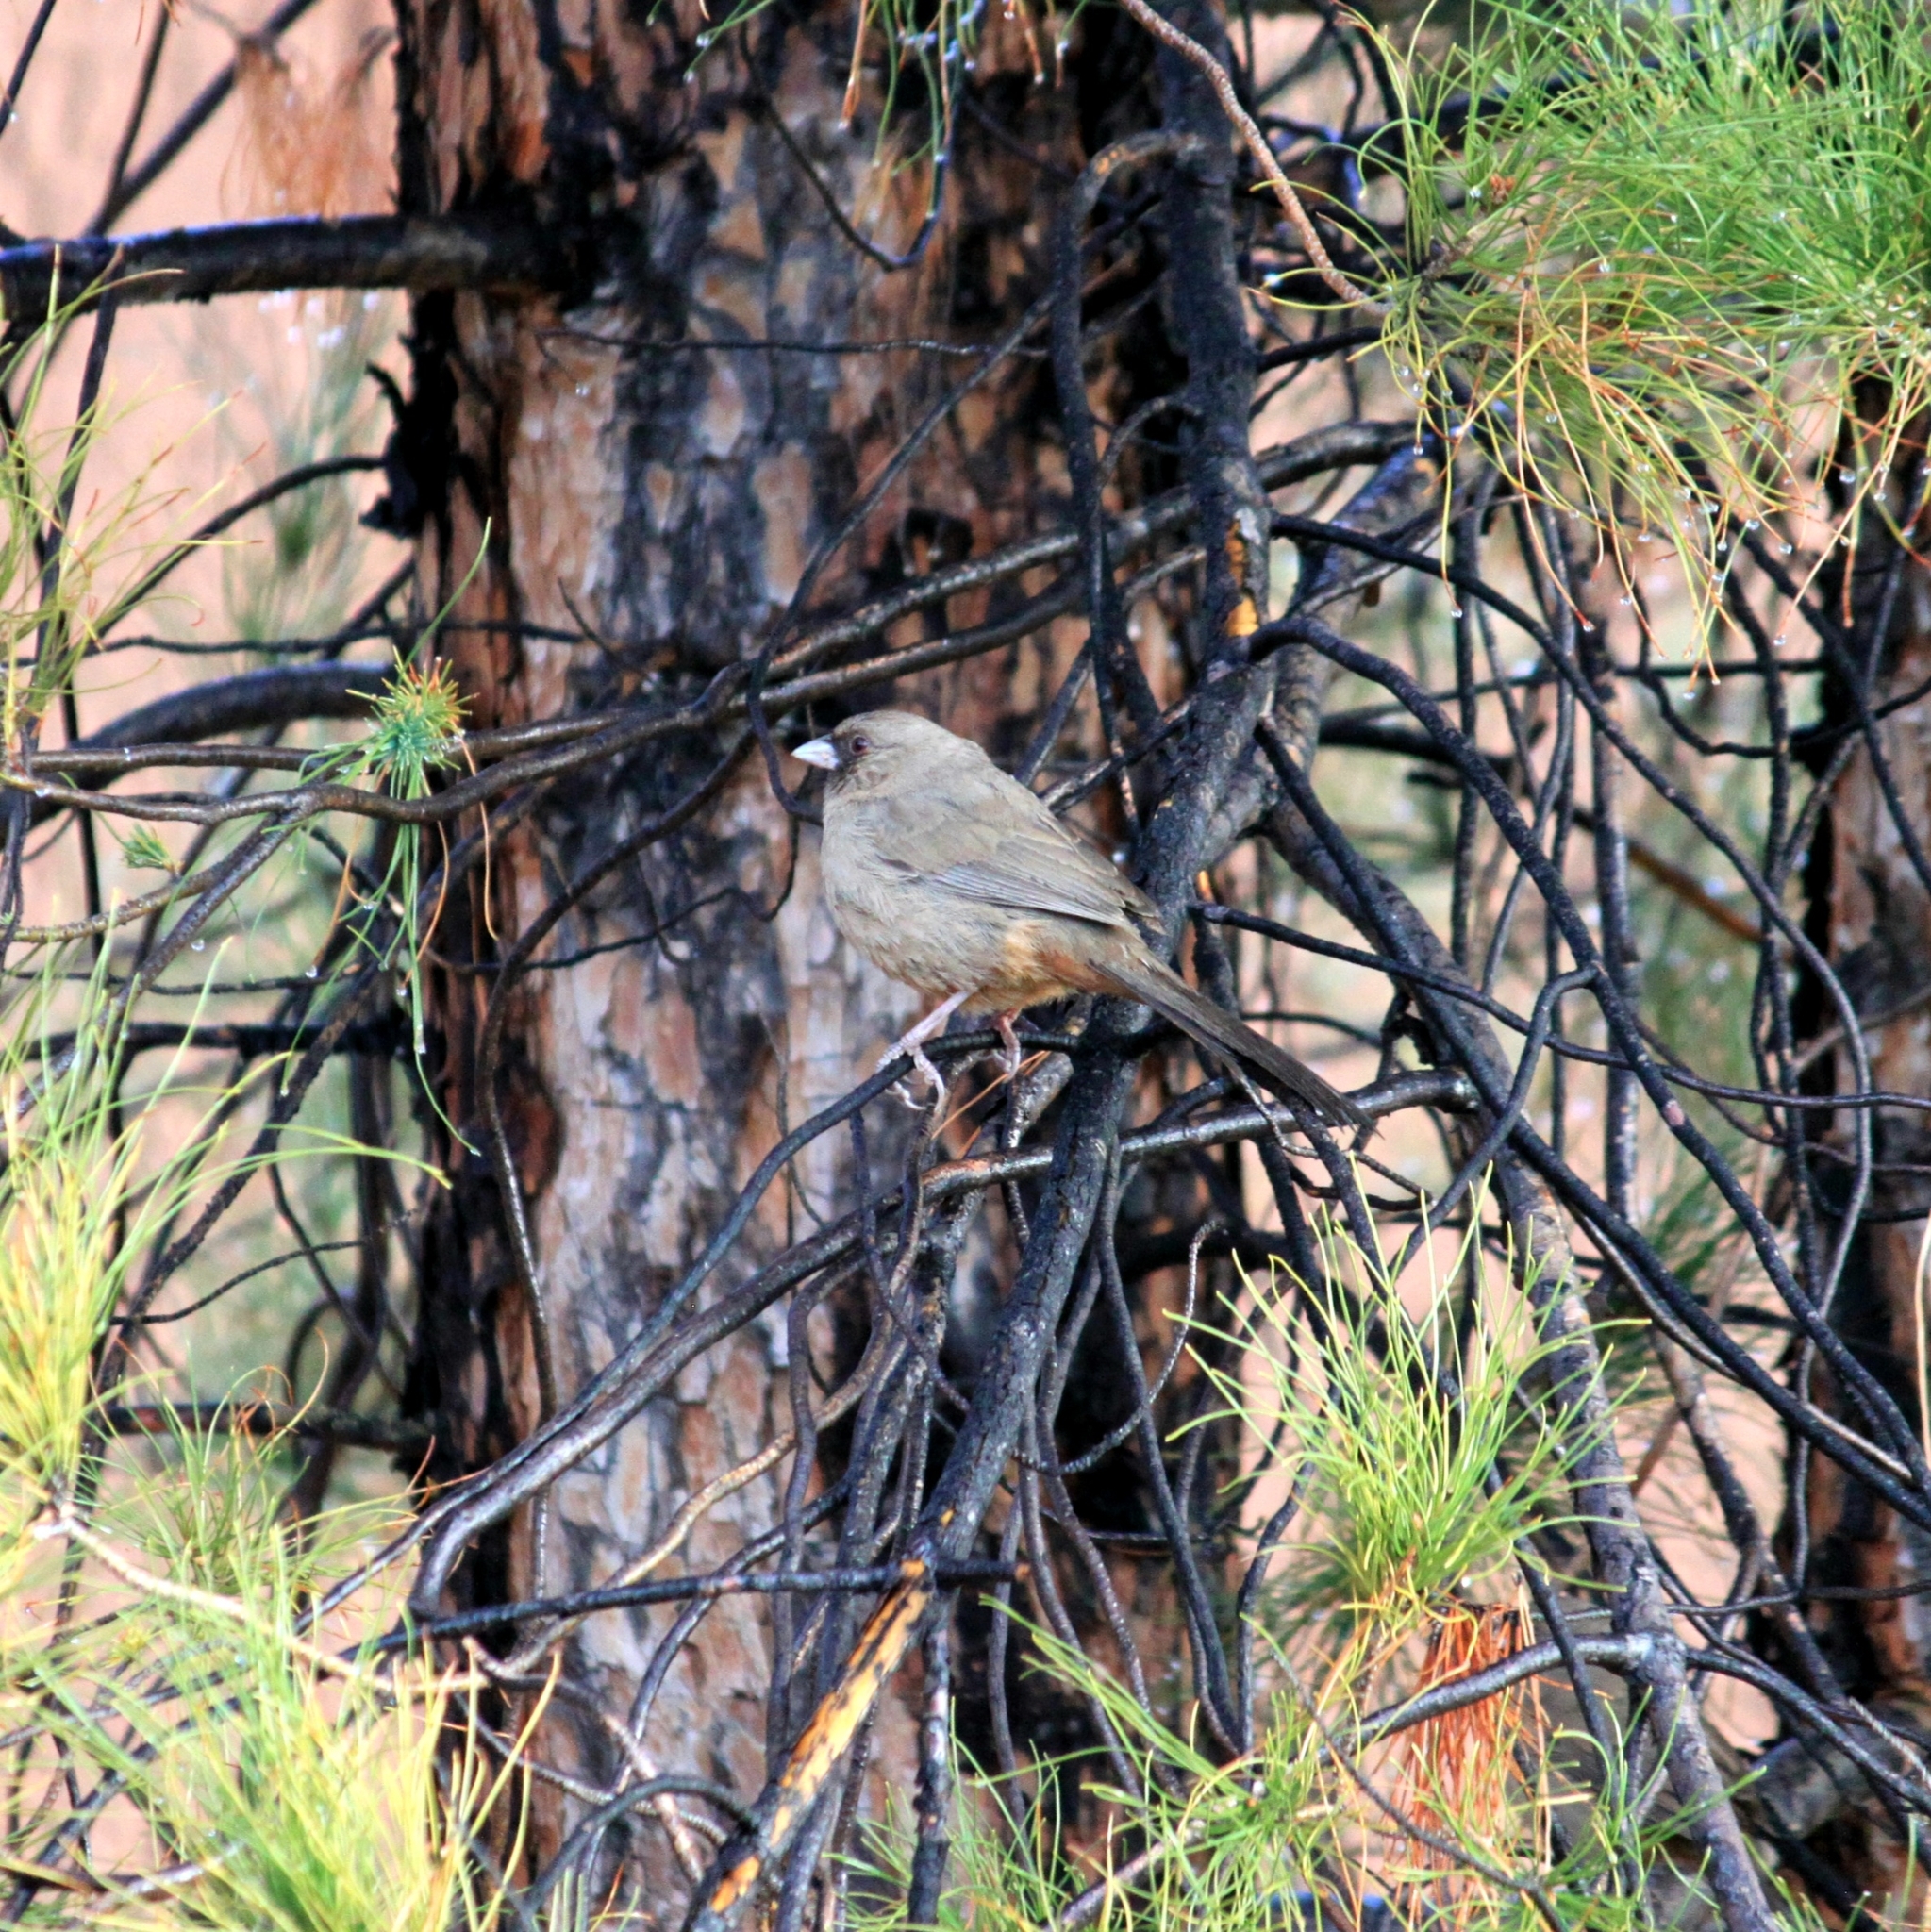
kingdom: Animalia
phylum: Chordata
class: Aves
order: Passeriformes
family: Passerellidae
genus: Melozone
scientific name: Melozone aberti
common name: Abert's towhee
